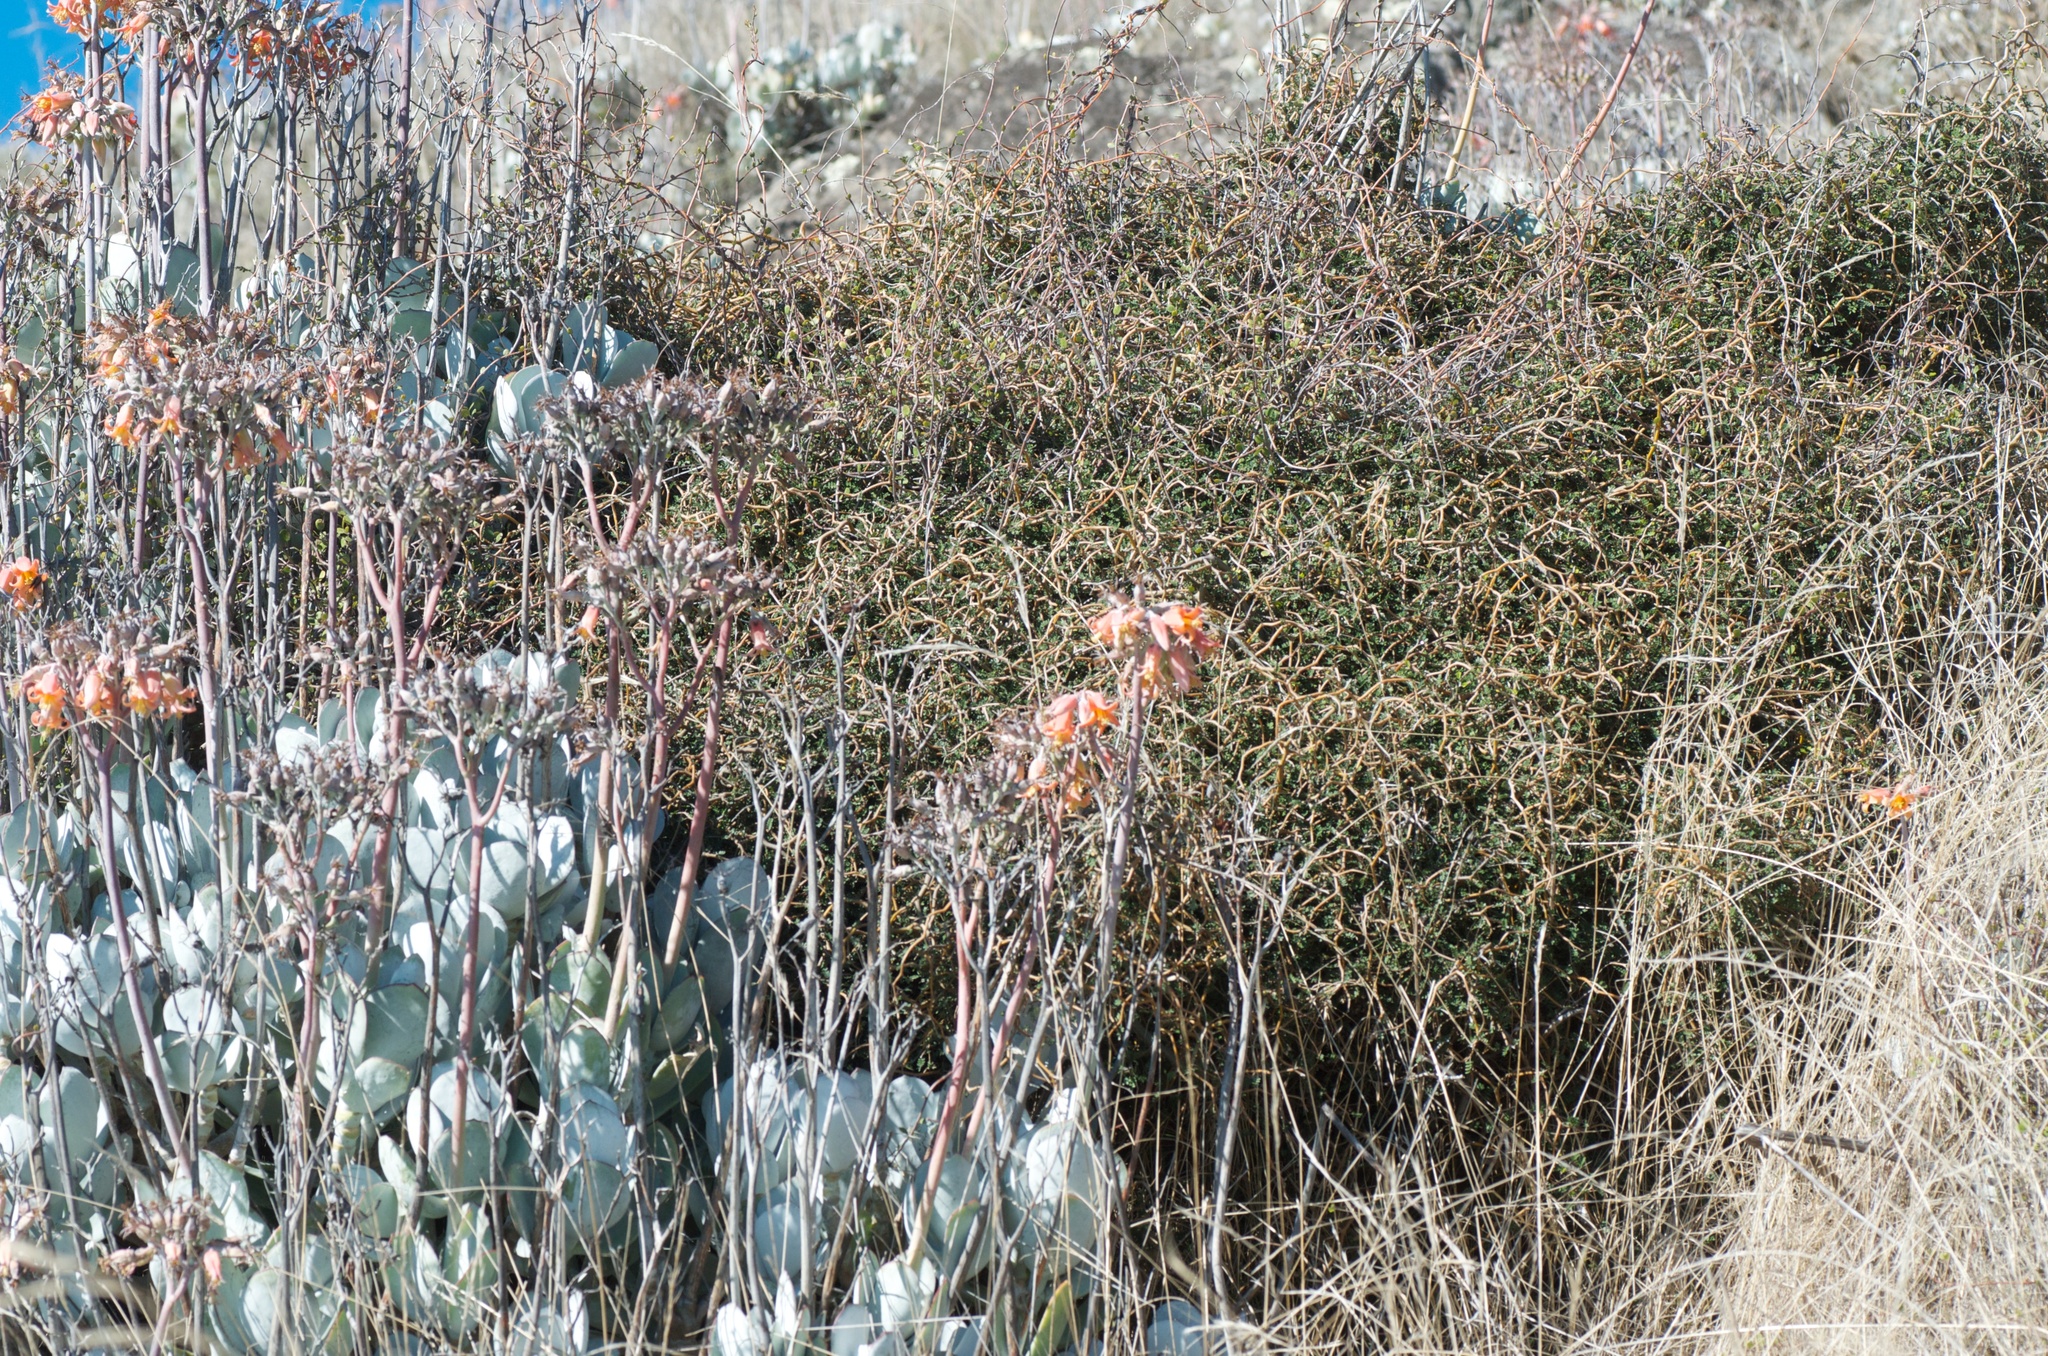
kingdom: Plantae
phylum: Tracheophyta
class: Magnoliopsida
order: Fabales
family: Fabaceae
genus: Sophora
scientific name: Sophora prostrata
